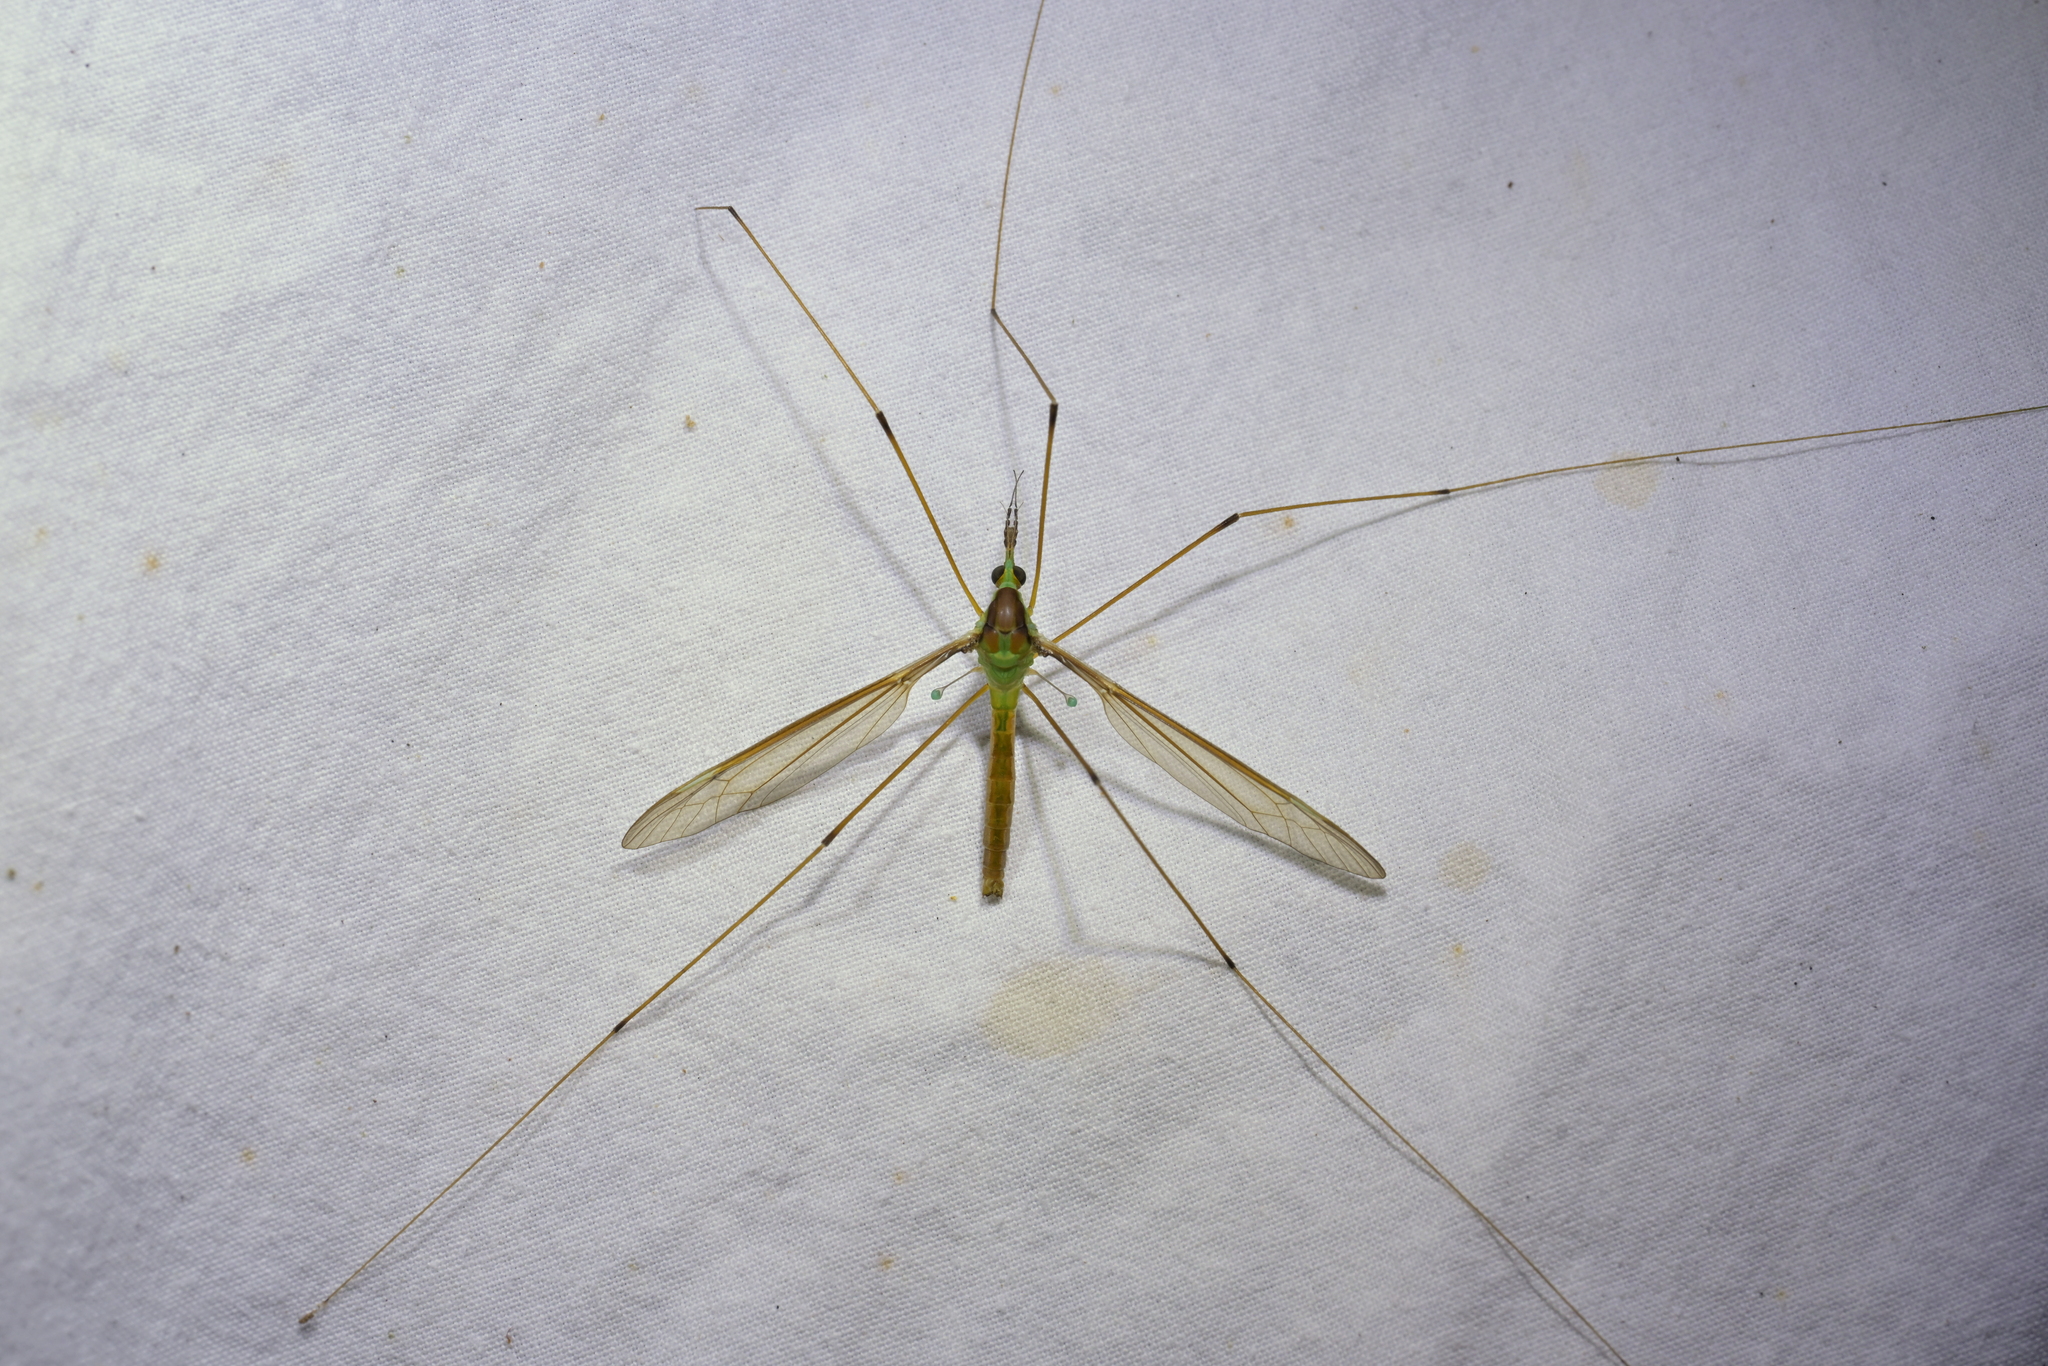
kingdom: Animalia
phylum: Arthropoda
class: Insecta
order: Diptera
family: Tipulidae
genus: Leptotarsus
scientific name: Leptotarsus albistigma
